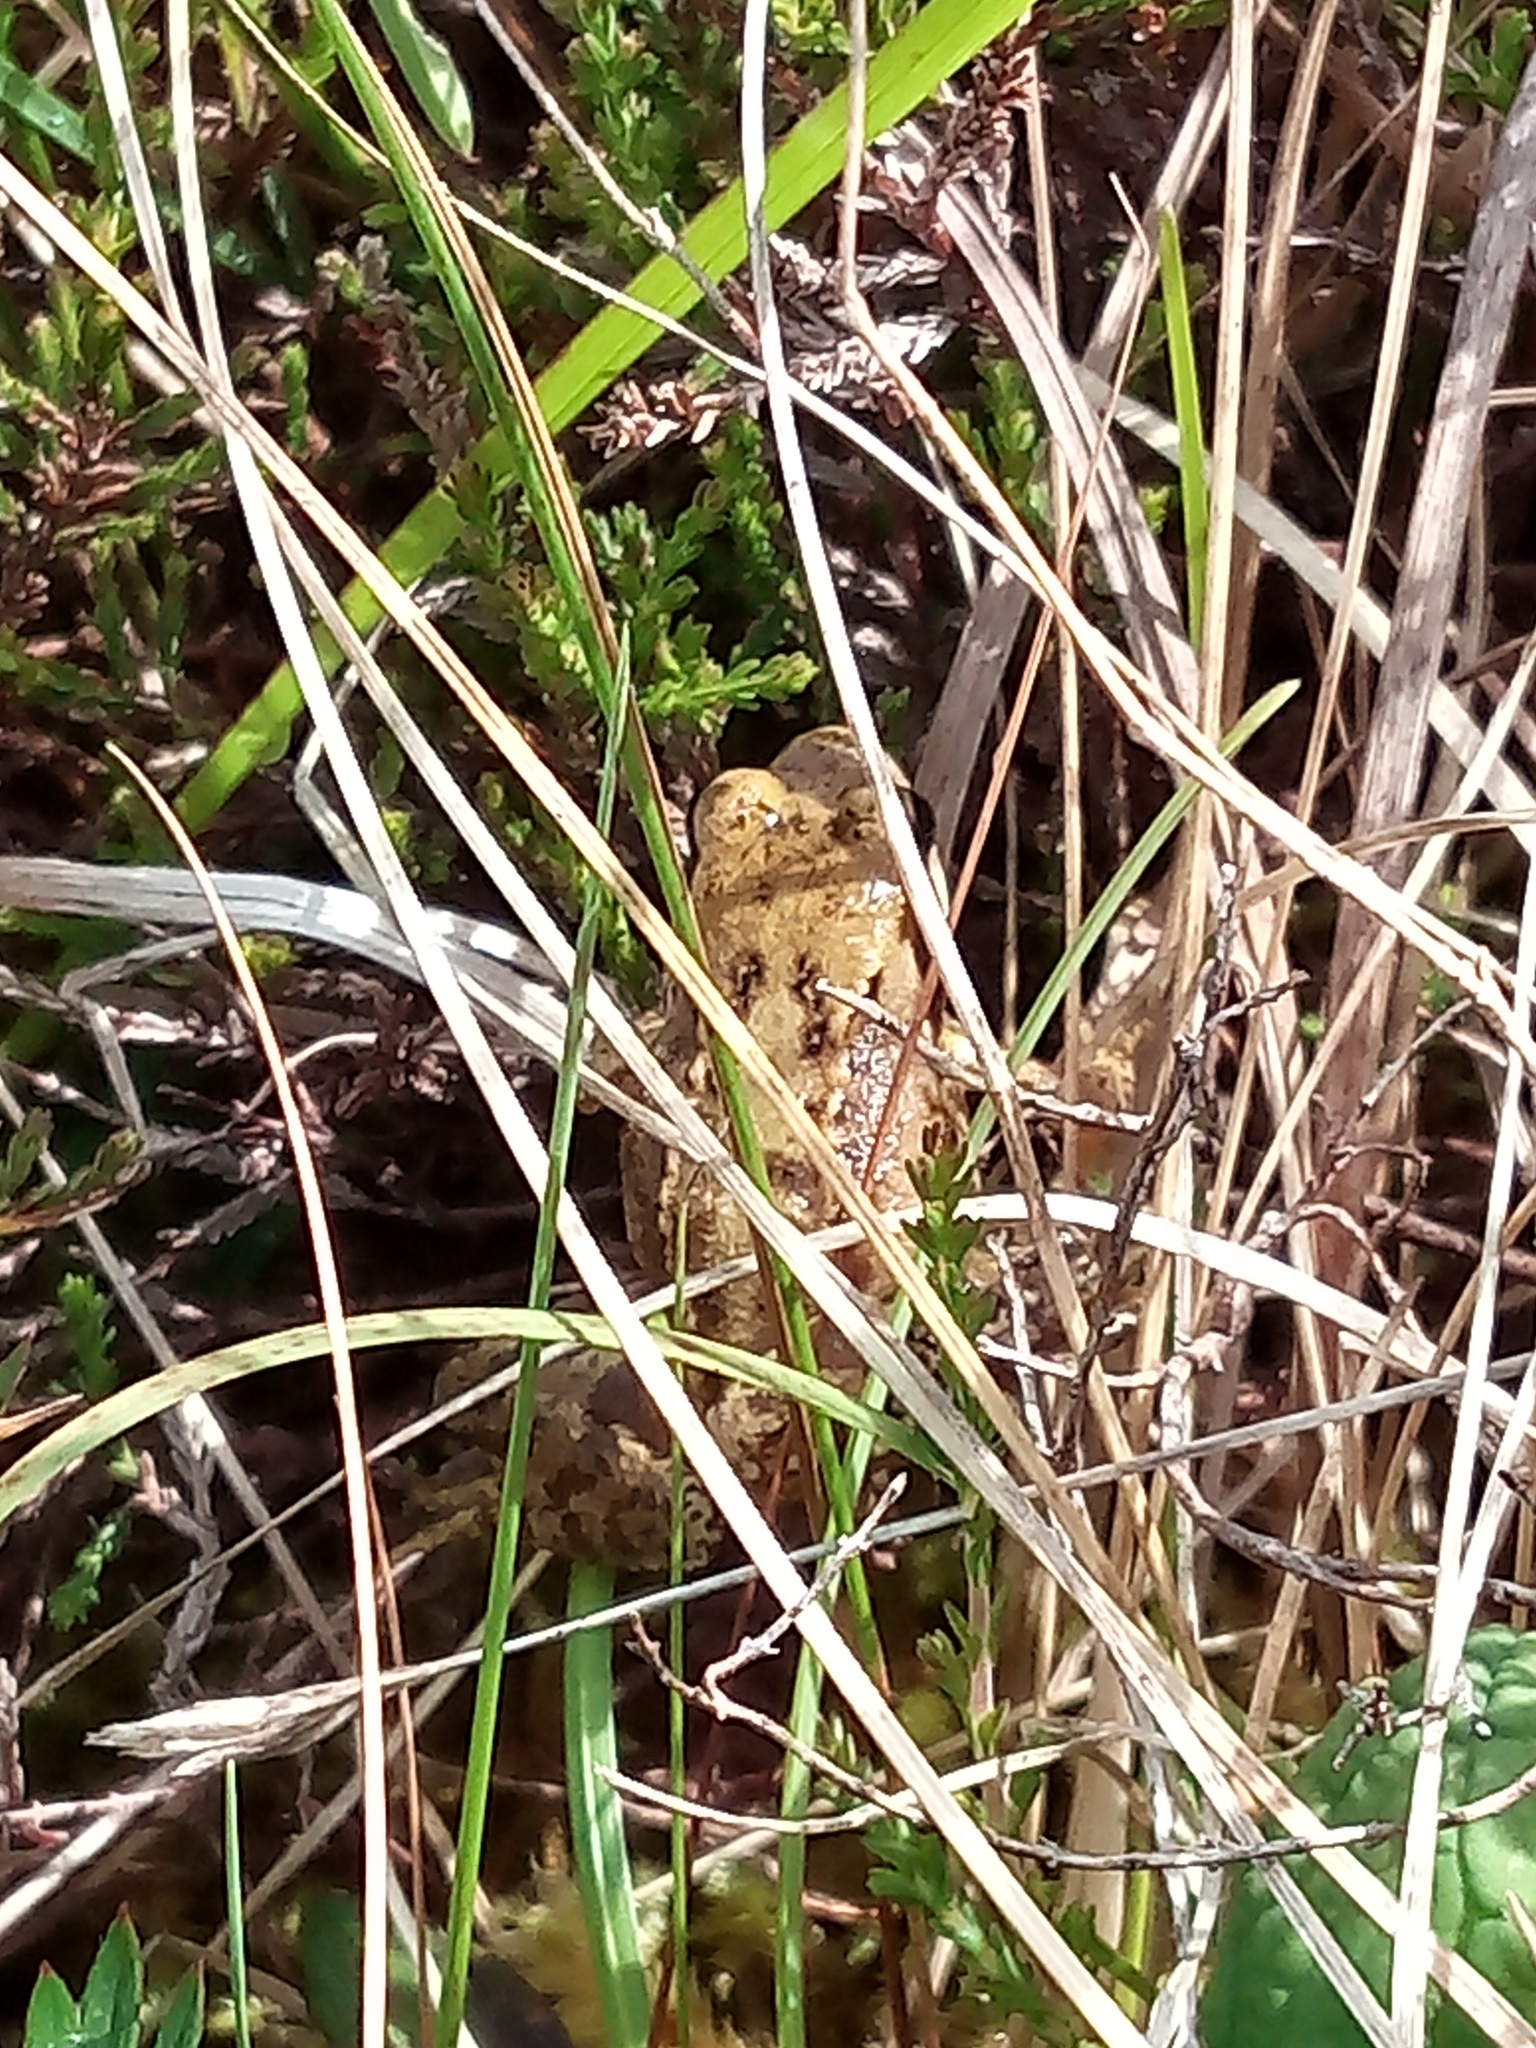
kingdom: Animalia
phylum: Chordata
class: Amphibia
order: Anura
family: Ranidae
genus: Rana
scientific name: Rana temporaria
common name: Common frog
